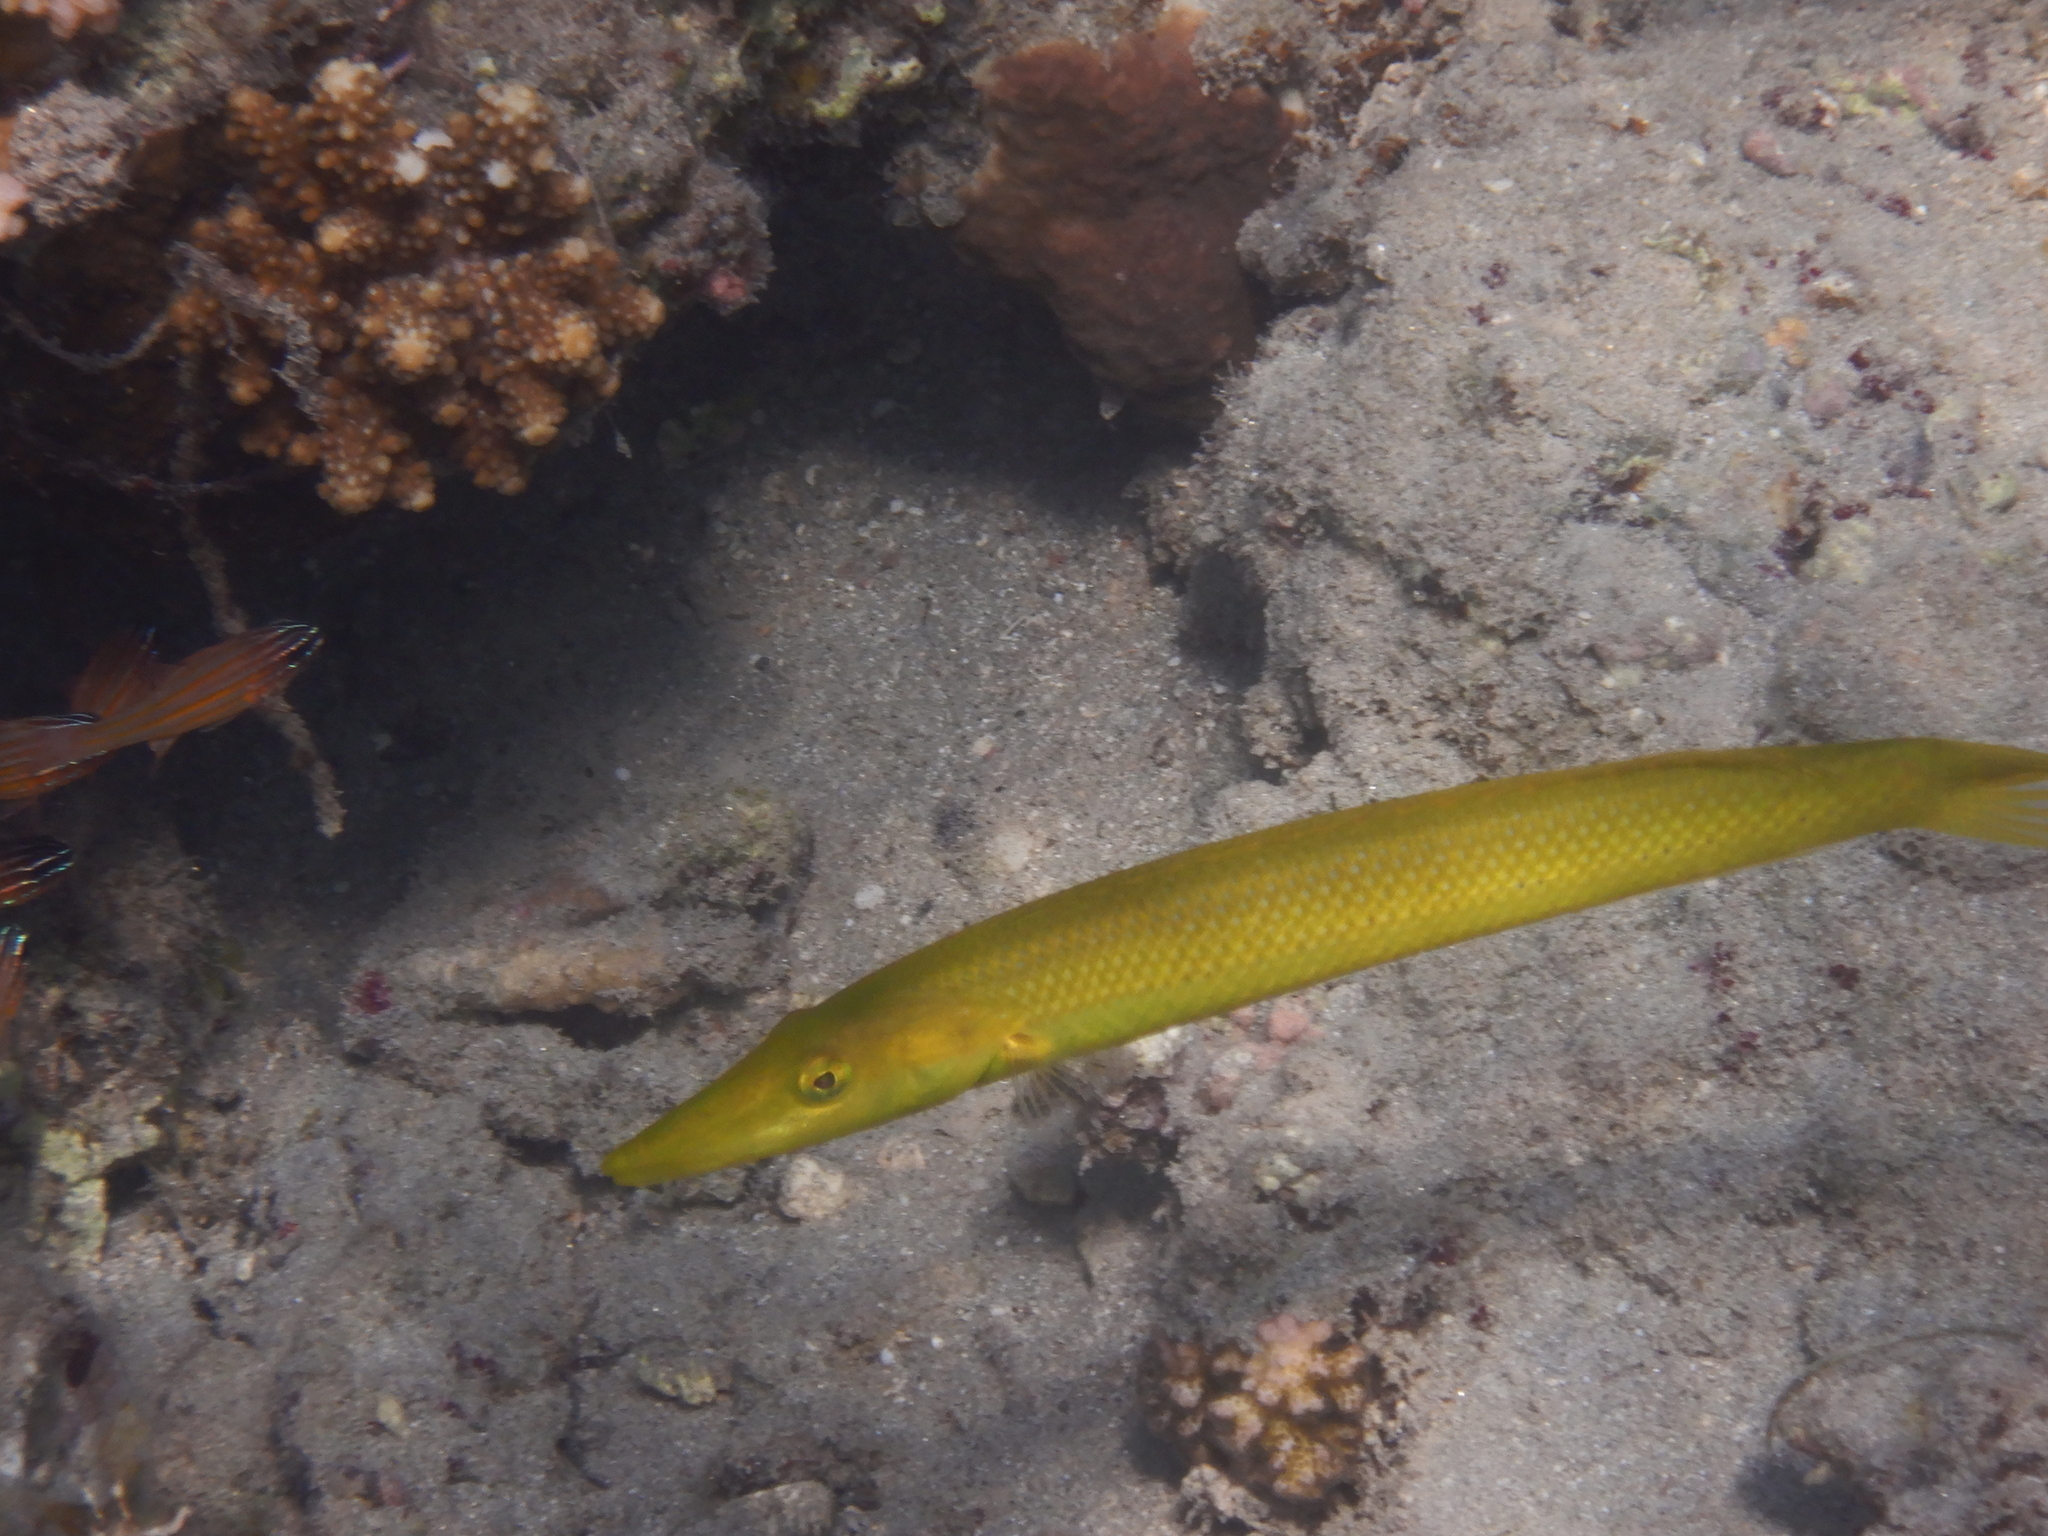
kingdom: Animalia
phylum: Chordata
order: Perciformes
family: Labridae
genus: Cheilio
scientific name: Cheilio inermis
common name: Cigar wrasse
